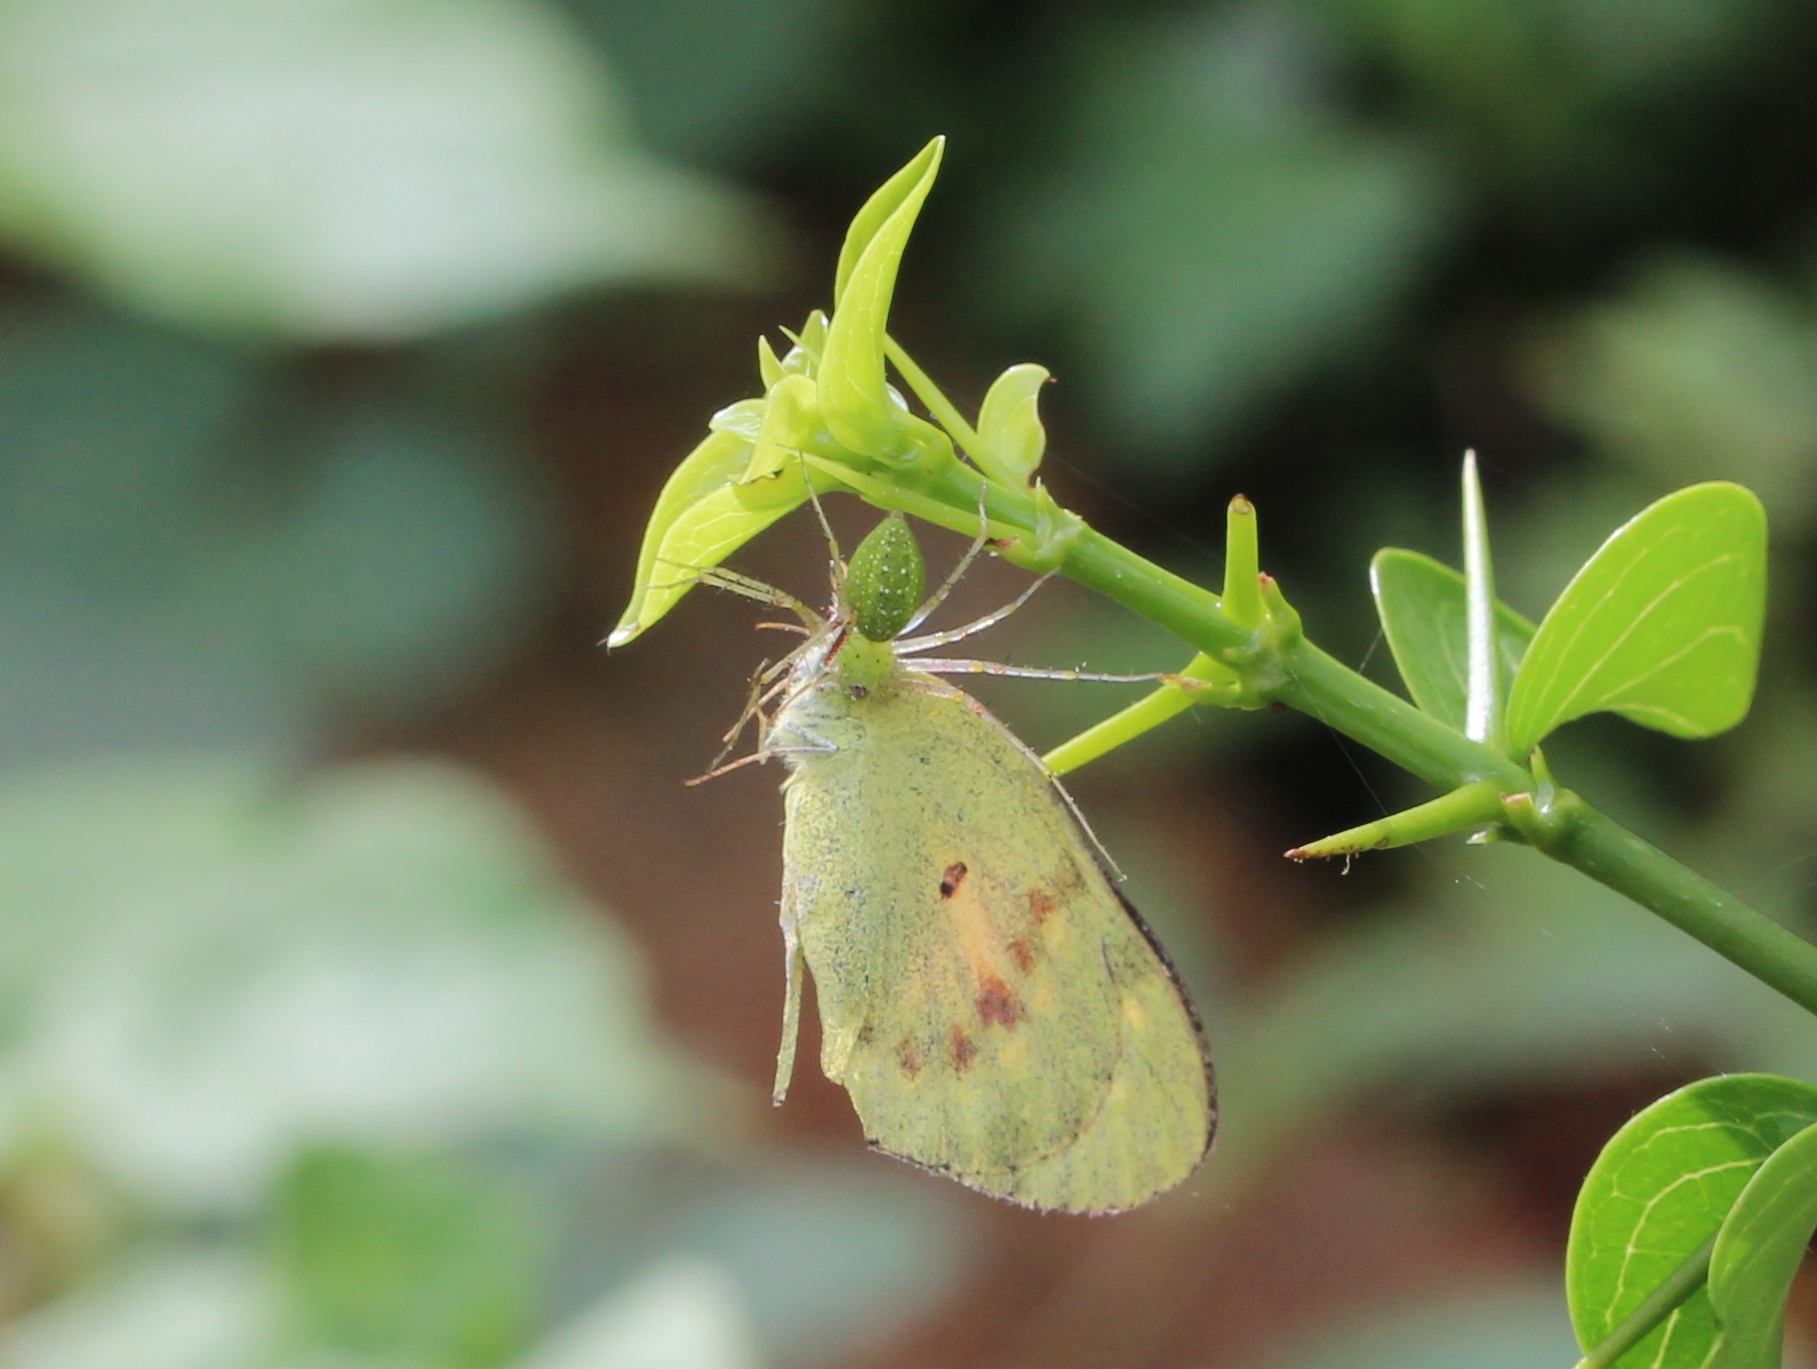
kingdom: Animalia
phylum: Arthropoda
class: Insecta
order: Lepidoptera
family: Pieridae
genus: Colotis
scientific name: Colotis amata
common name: Small salmon arab
